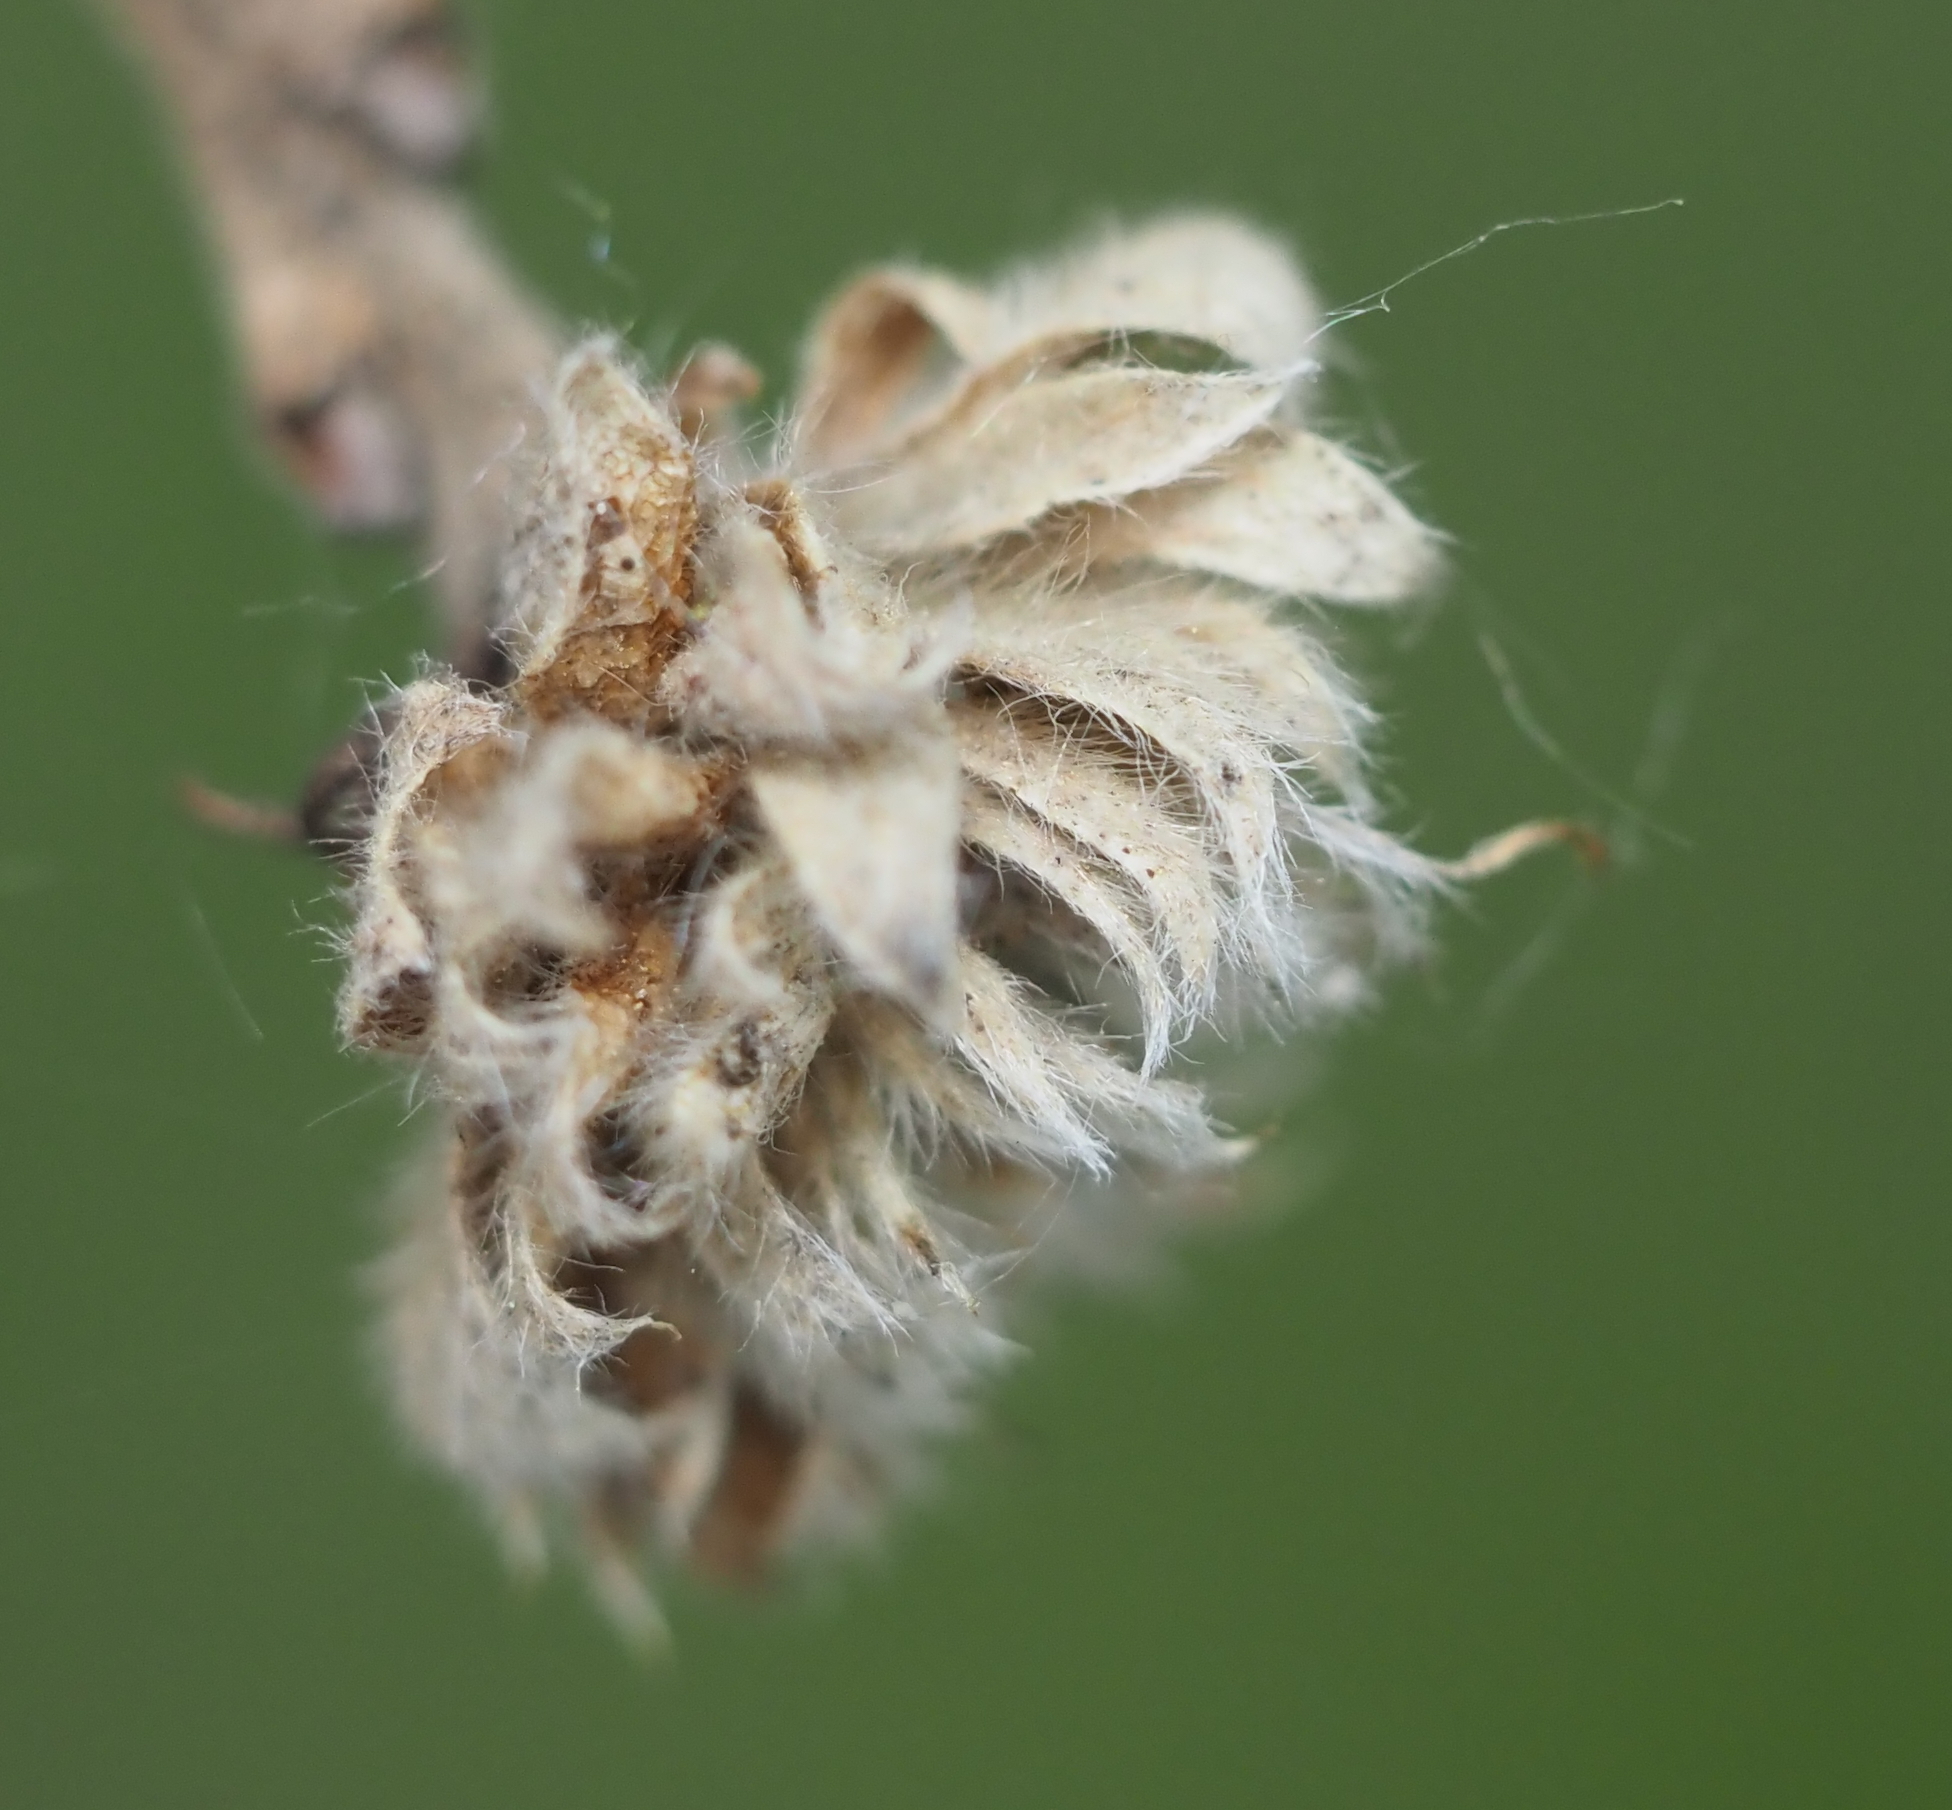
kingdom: Animalia
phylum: Arthropoda
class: Insecta
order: Hymenoptera
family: Cynipidae
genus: Andricus
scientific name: Andricus
